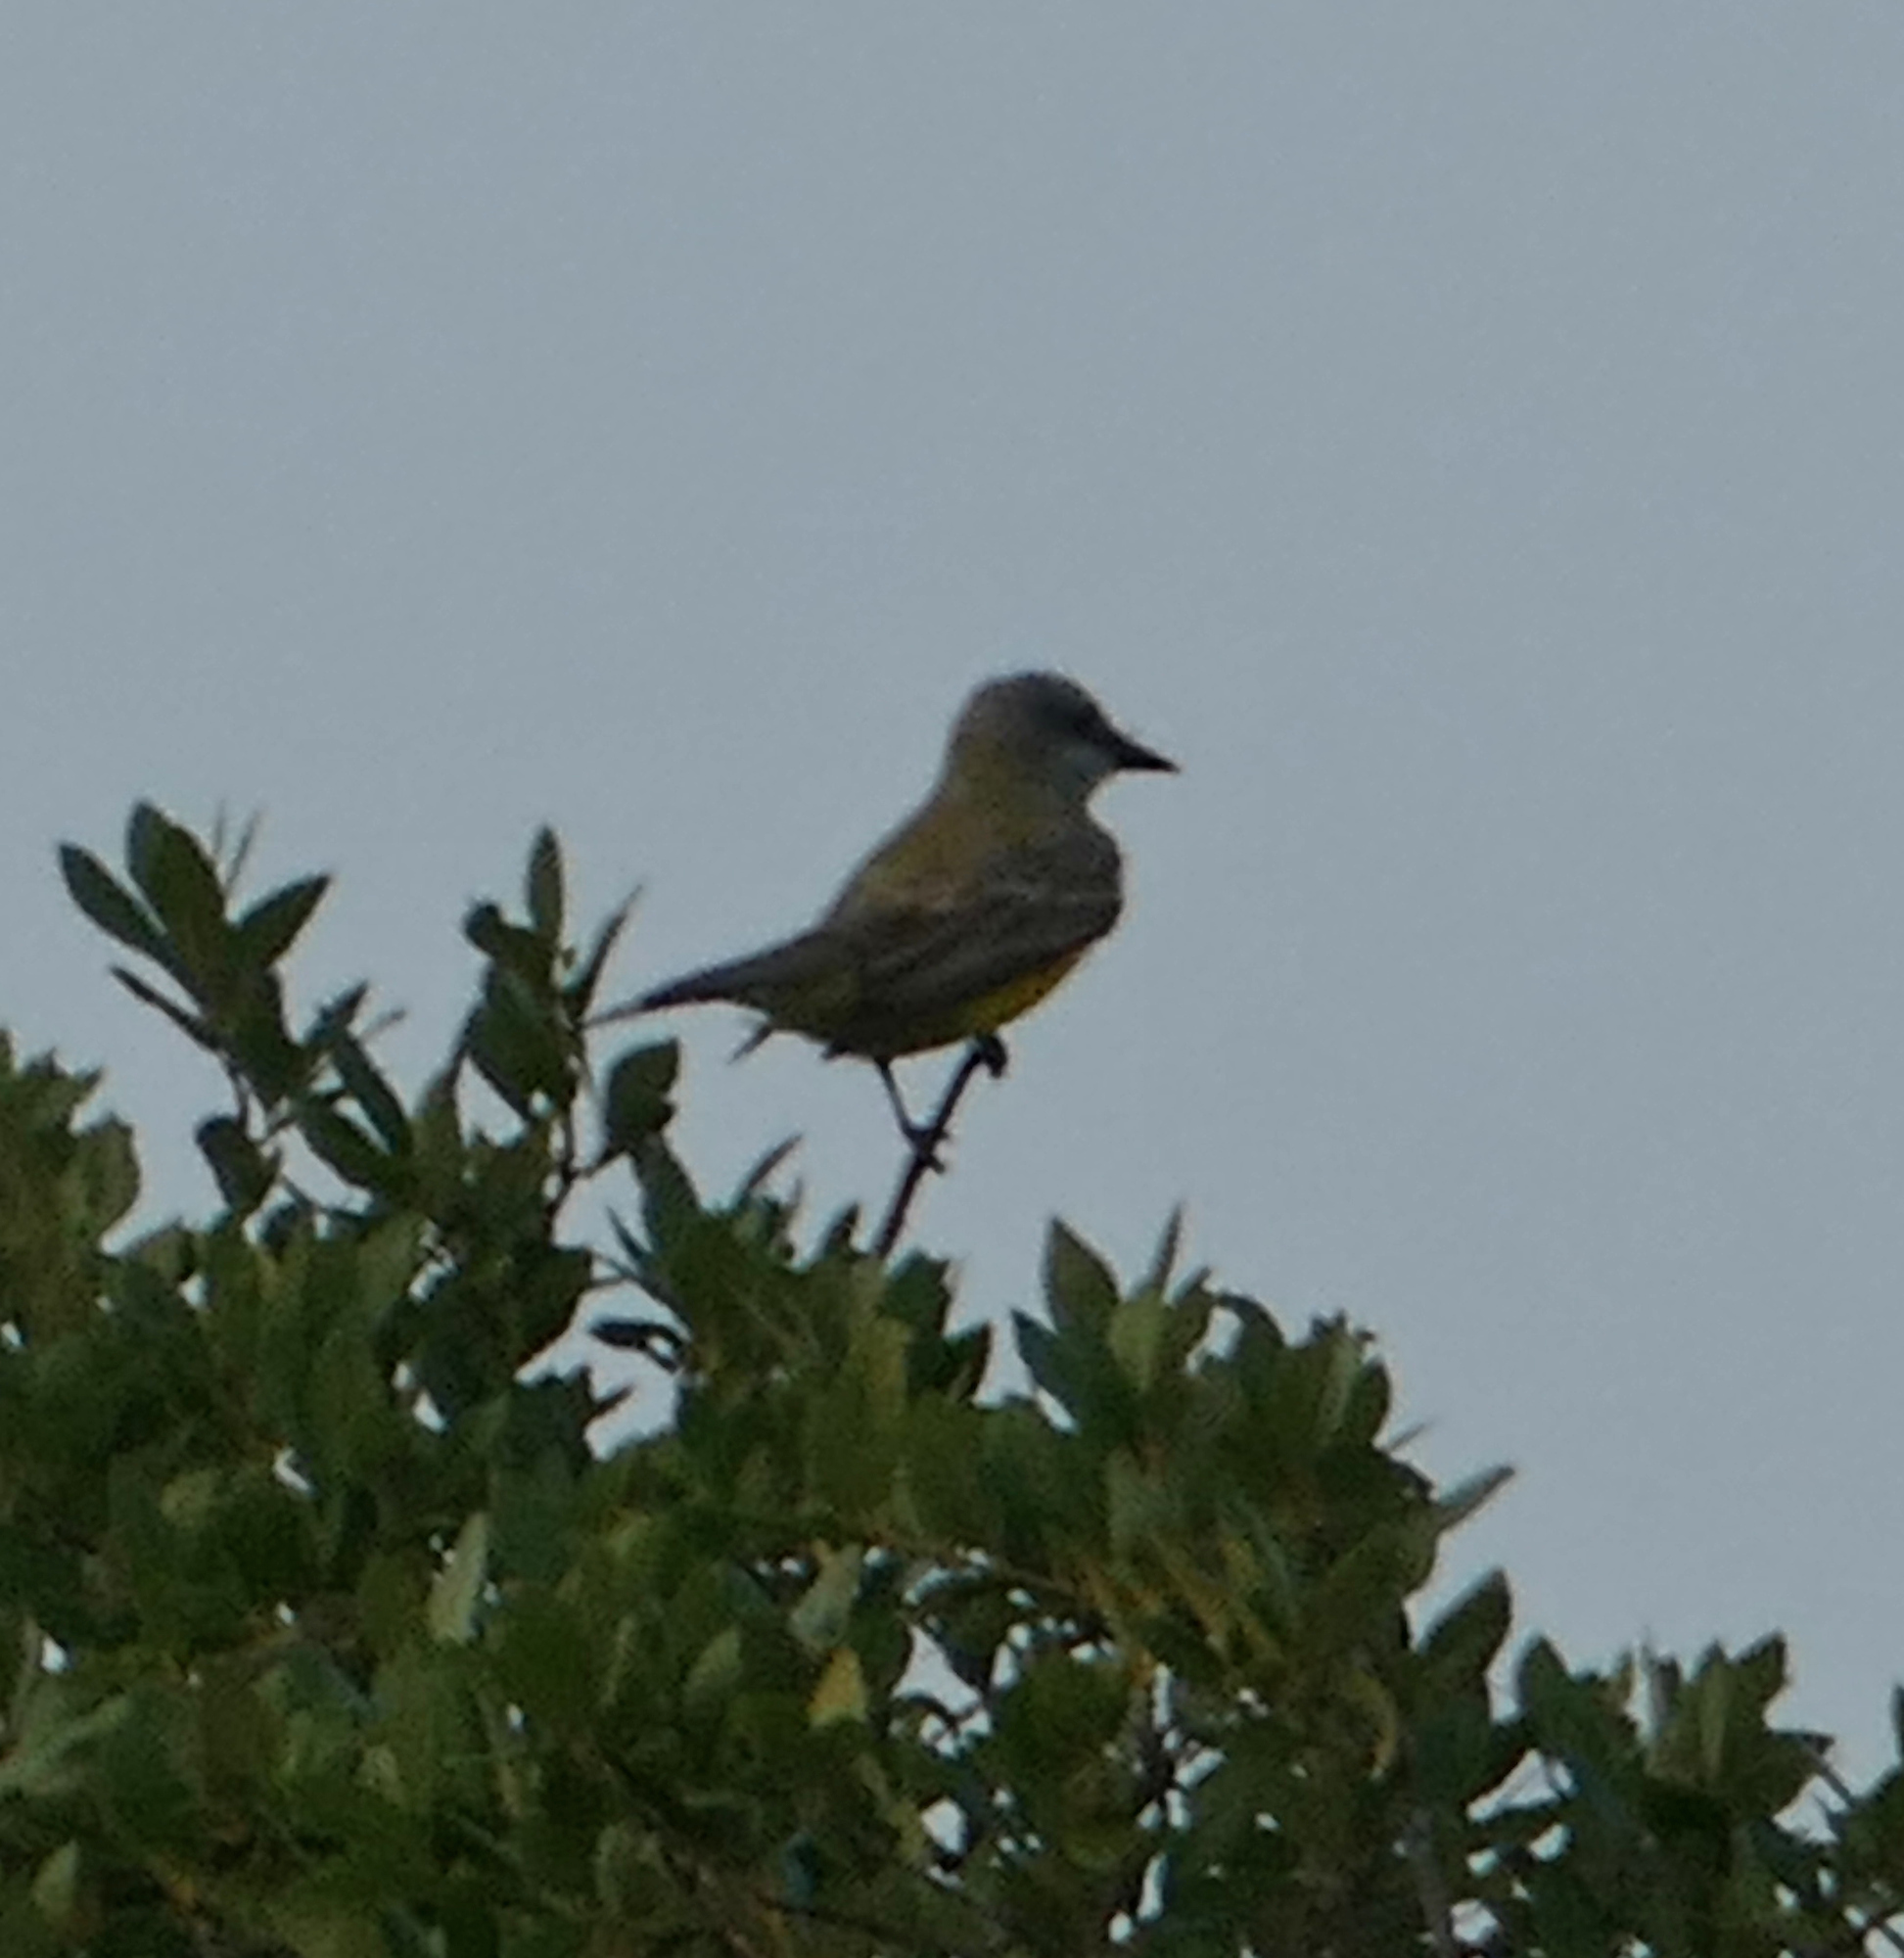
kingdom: Animalia
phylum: Chordata
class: Aves
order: Passeriformes
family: Tyrannidae
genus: Tyrannus
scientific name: Tyrannus couchii
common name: Couch's kingbird
